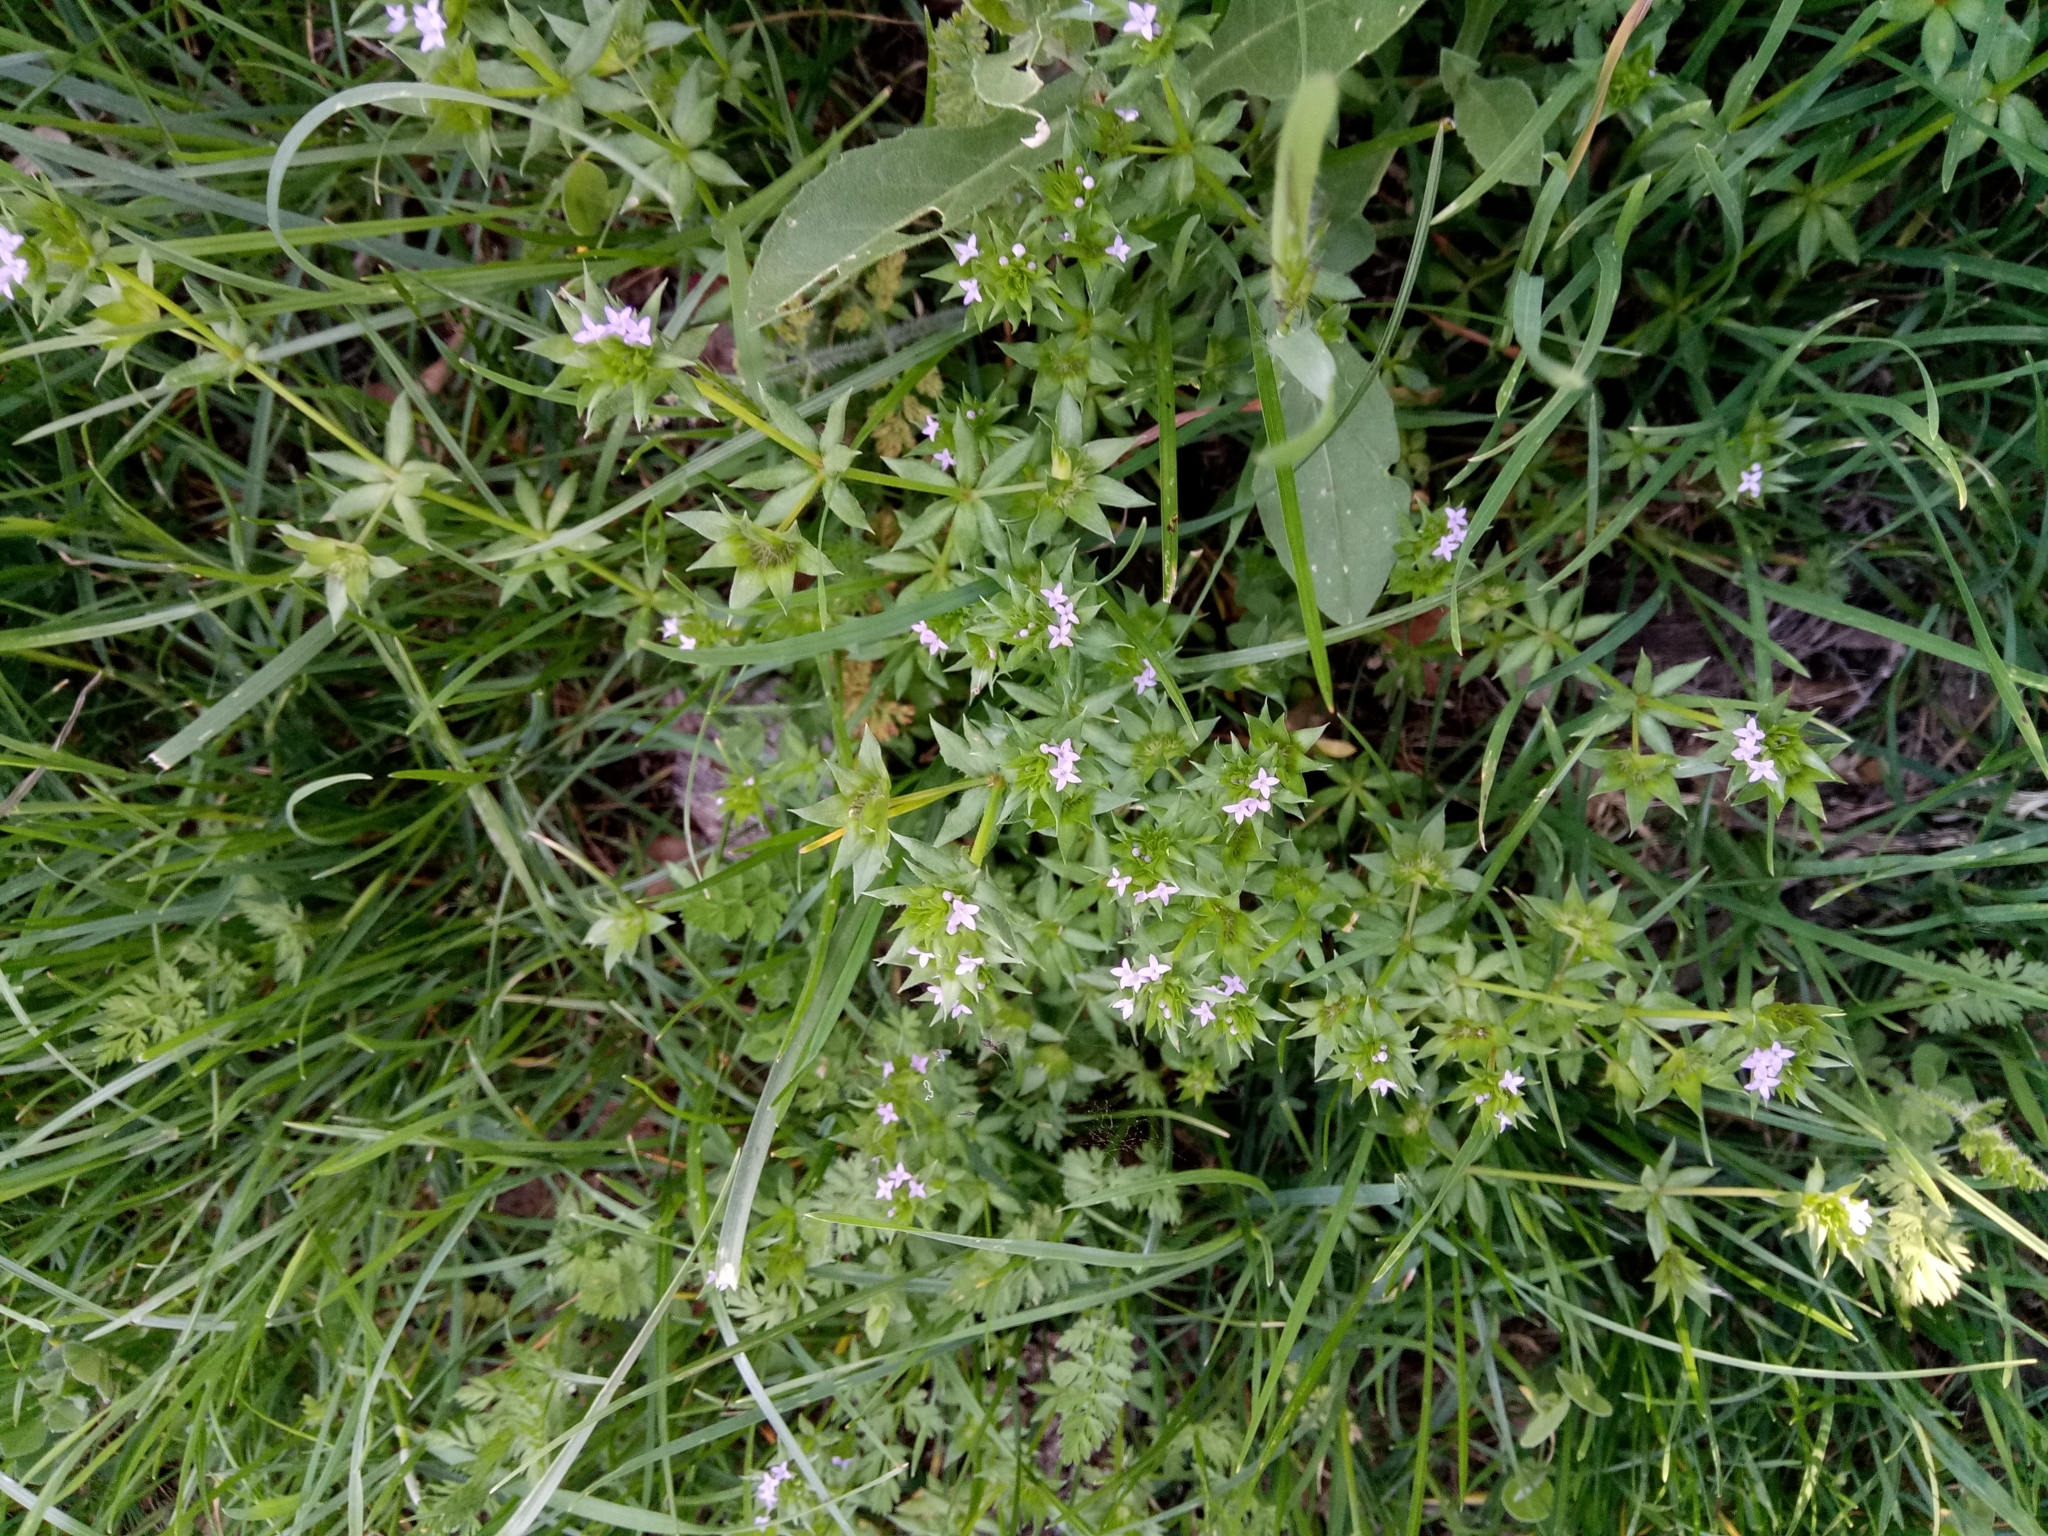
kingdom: Plantae
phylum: Tracheophyta
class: Magnoliopsida
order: Gentianales
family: Rubiaceae
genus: Sherardia
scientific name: Sherardia arvensis
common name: Field madder
